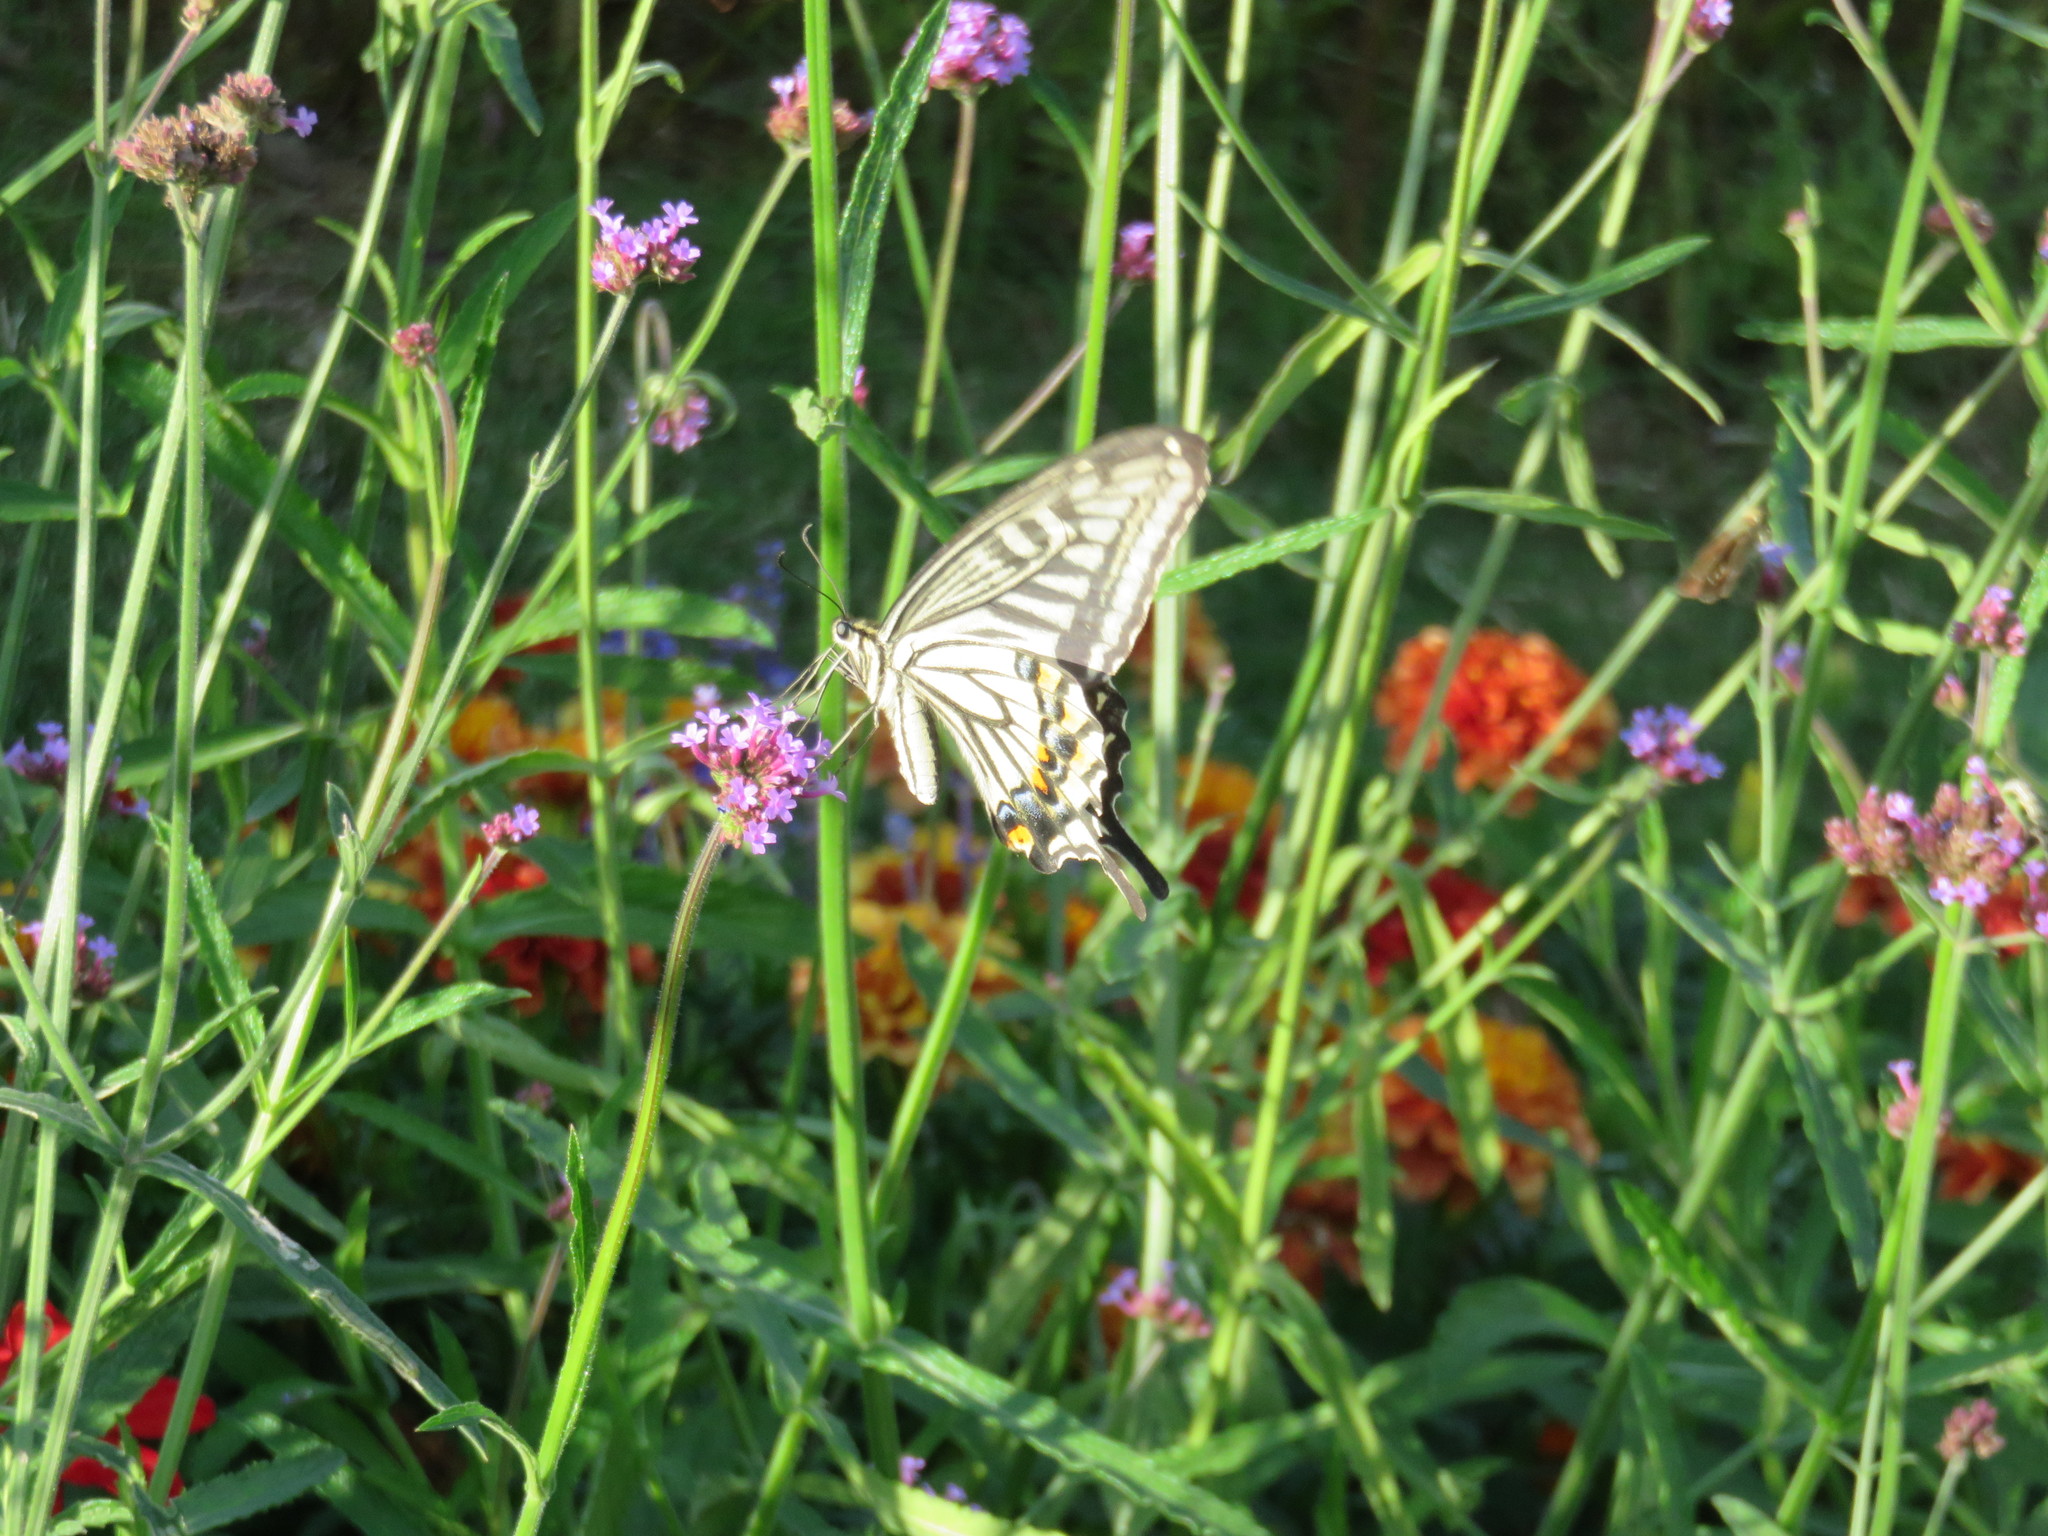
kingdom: Animalia
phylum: Arthropoda
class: Insecta
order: Lepidoptera
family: Papilionidae
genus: Papilio
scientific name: Papilio xuthus
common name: Asian swallowtail
